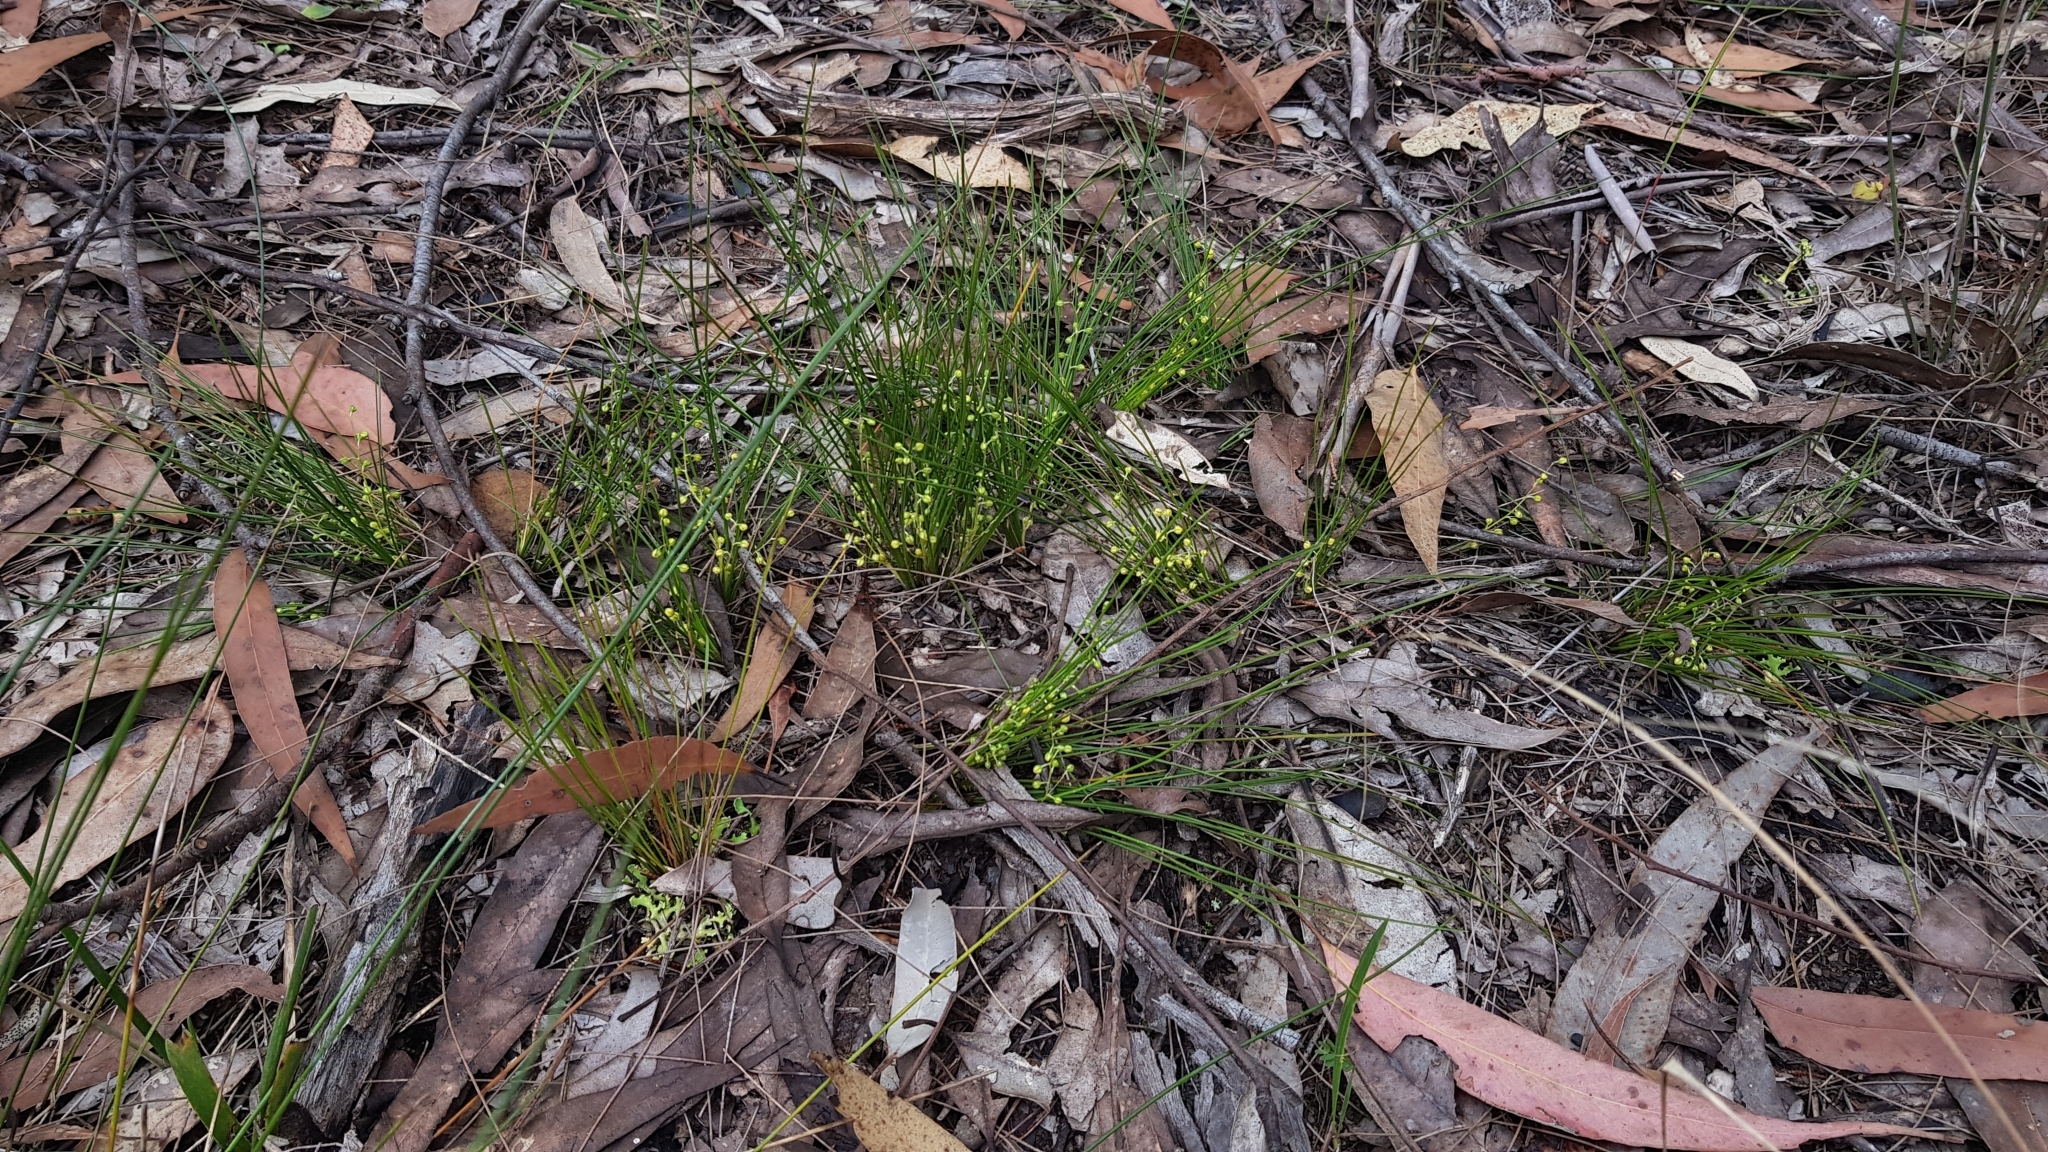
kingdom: Plantae
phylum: Tracheophyta
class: Liliopsida
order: Asparagales
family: Asparagaceae
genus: Lomandra
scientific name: Lomandra filiformis
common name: Wattle mat-rush
